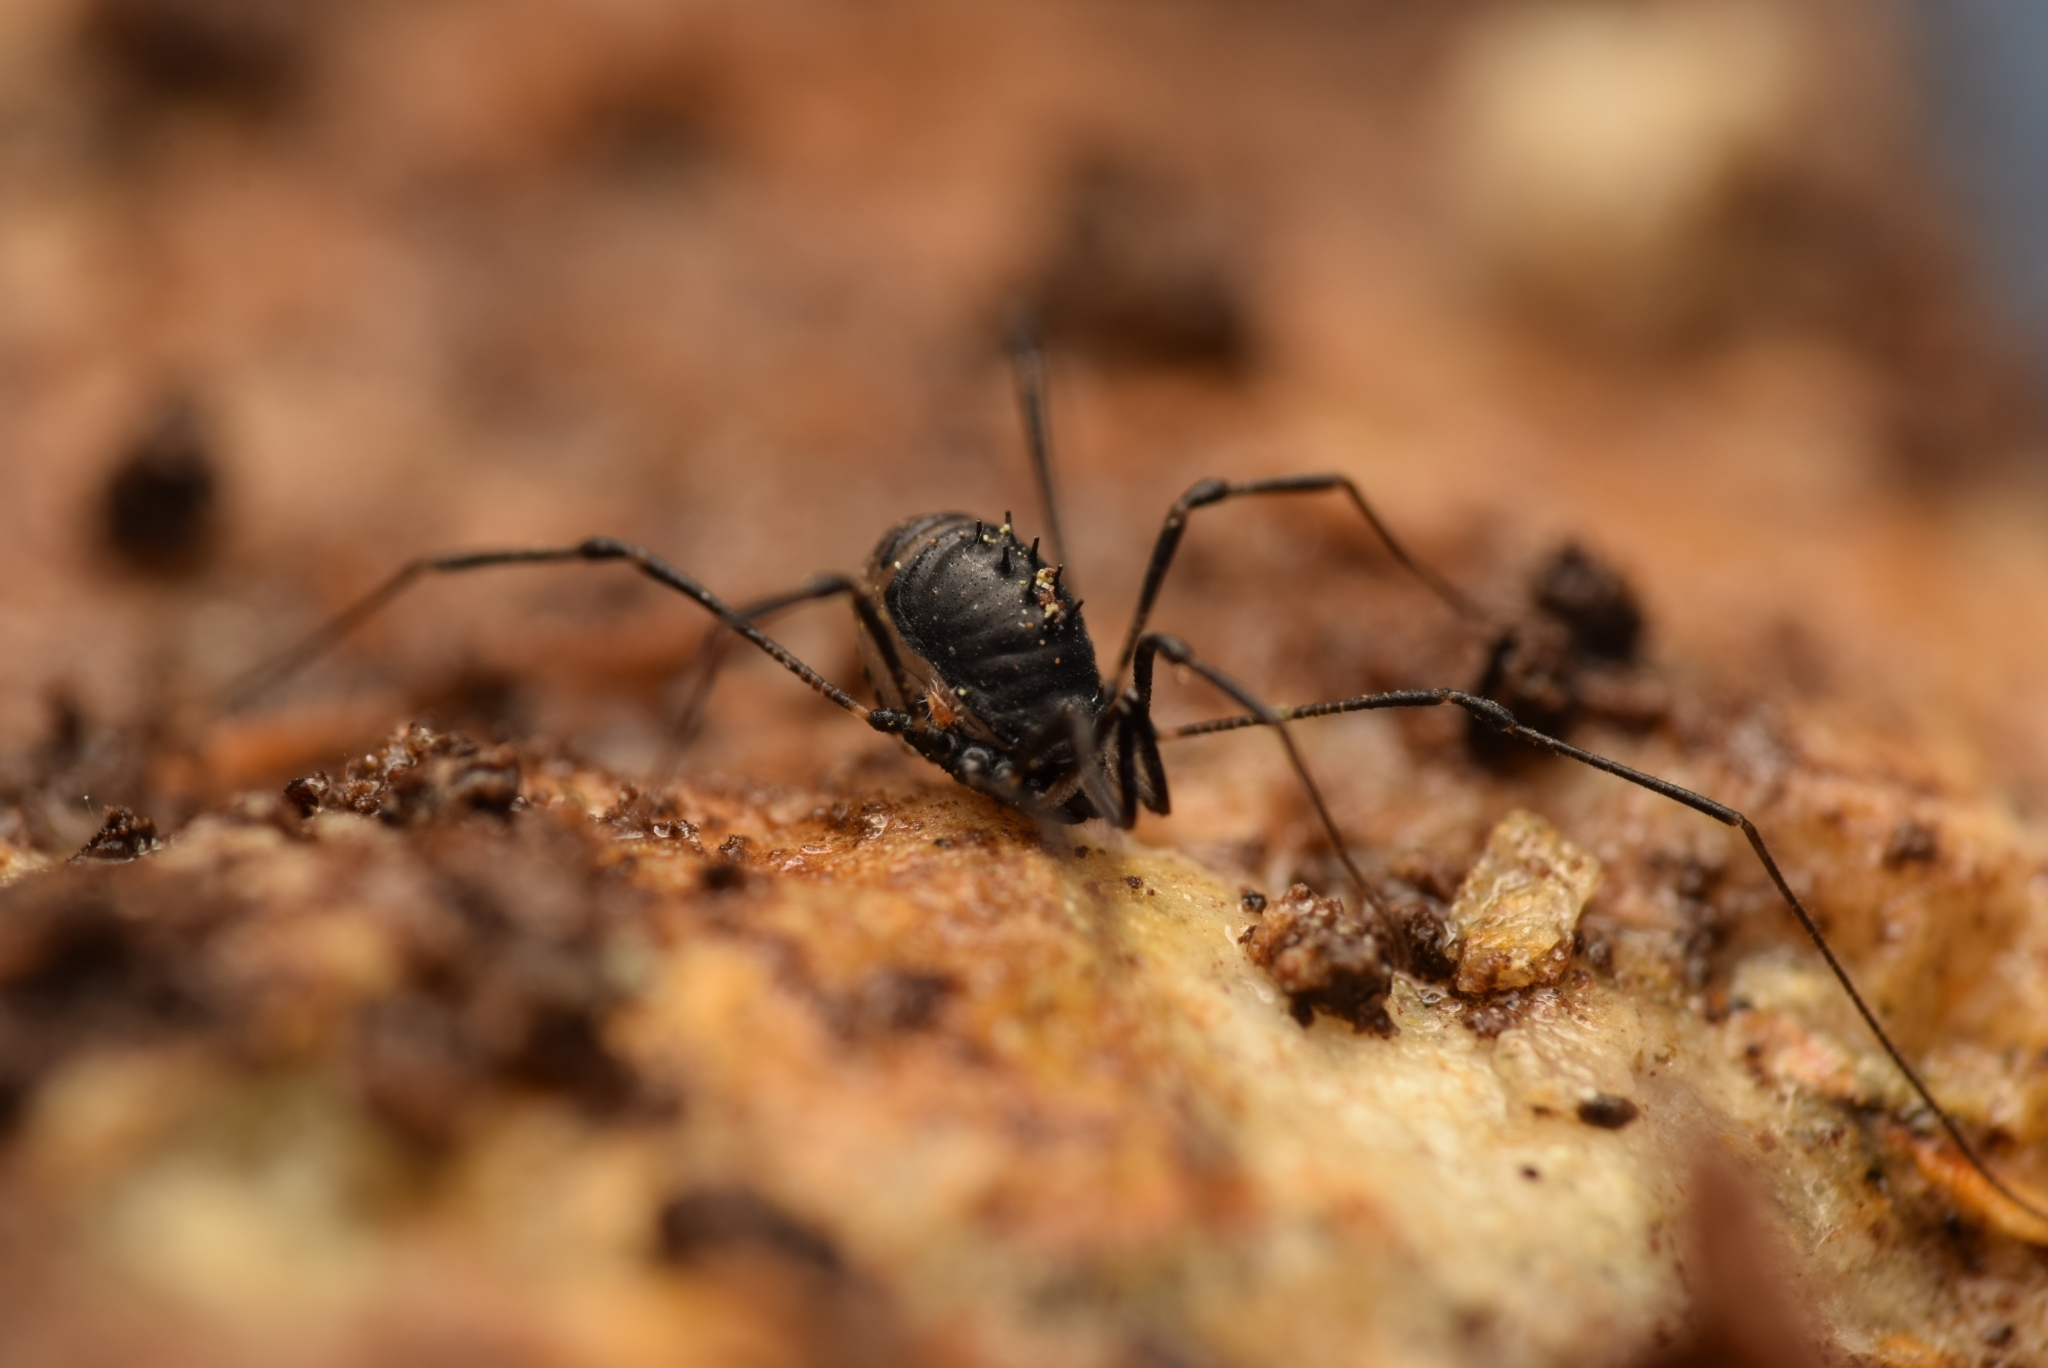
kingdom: Animalia
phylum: Arthropoda
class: Arachnida
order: Opiliones
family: Nemastomatidae
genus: Nemastomella
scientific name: Nemastomella dubia
